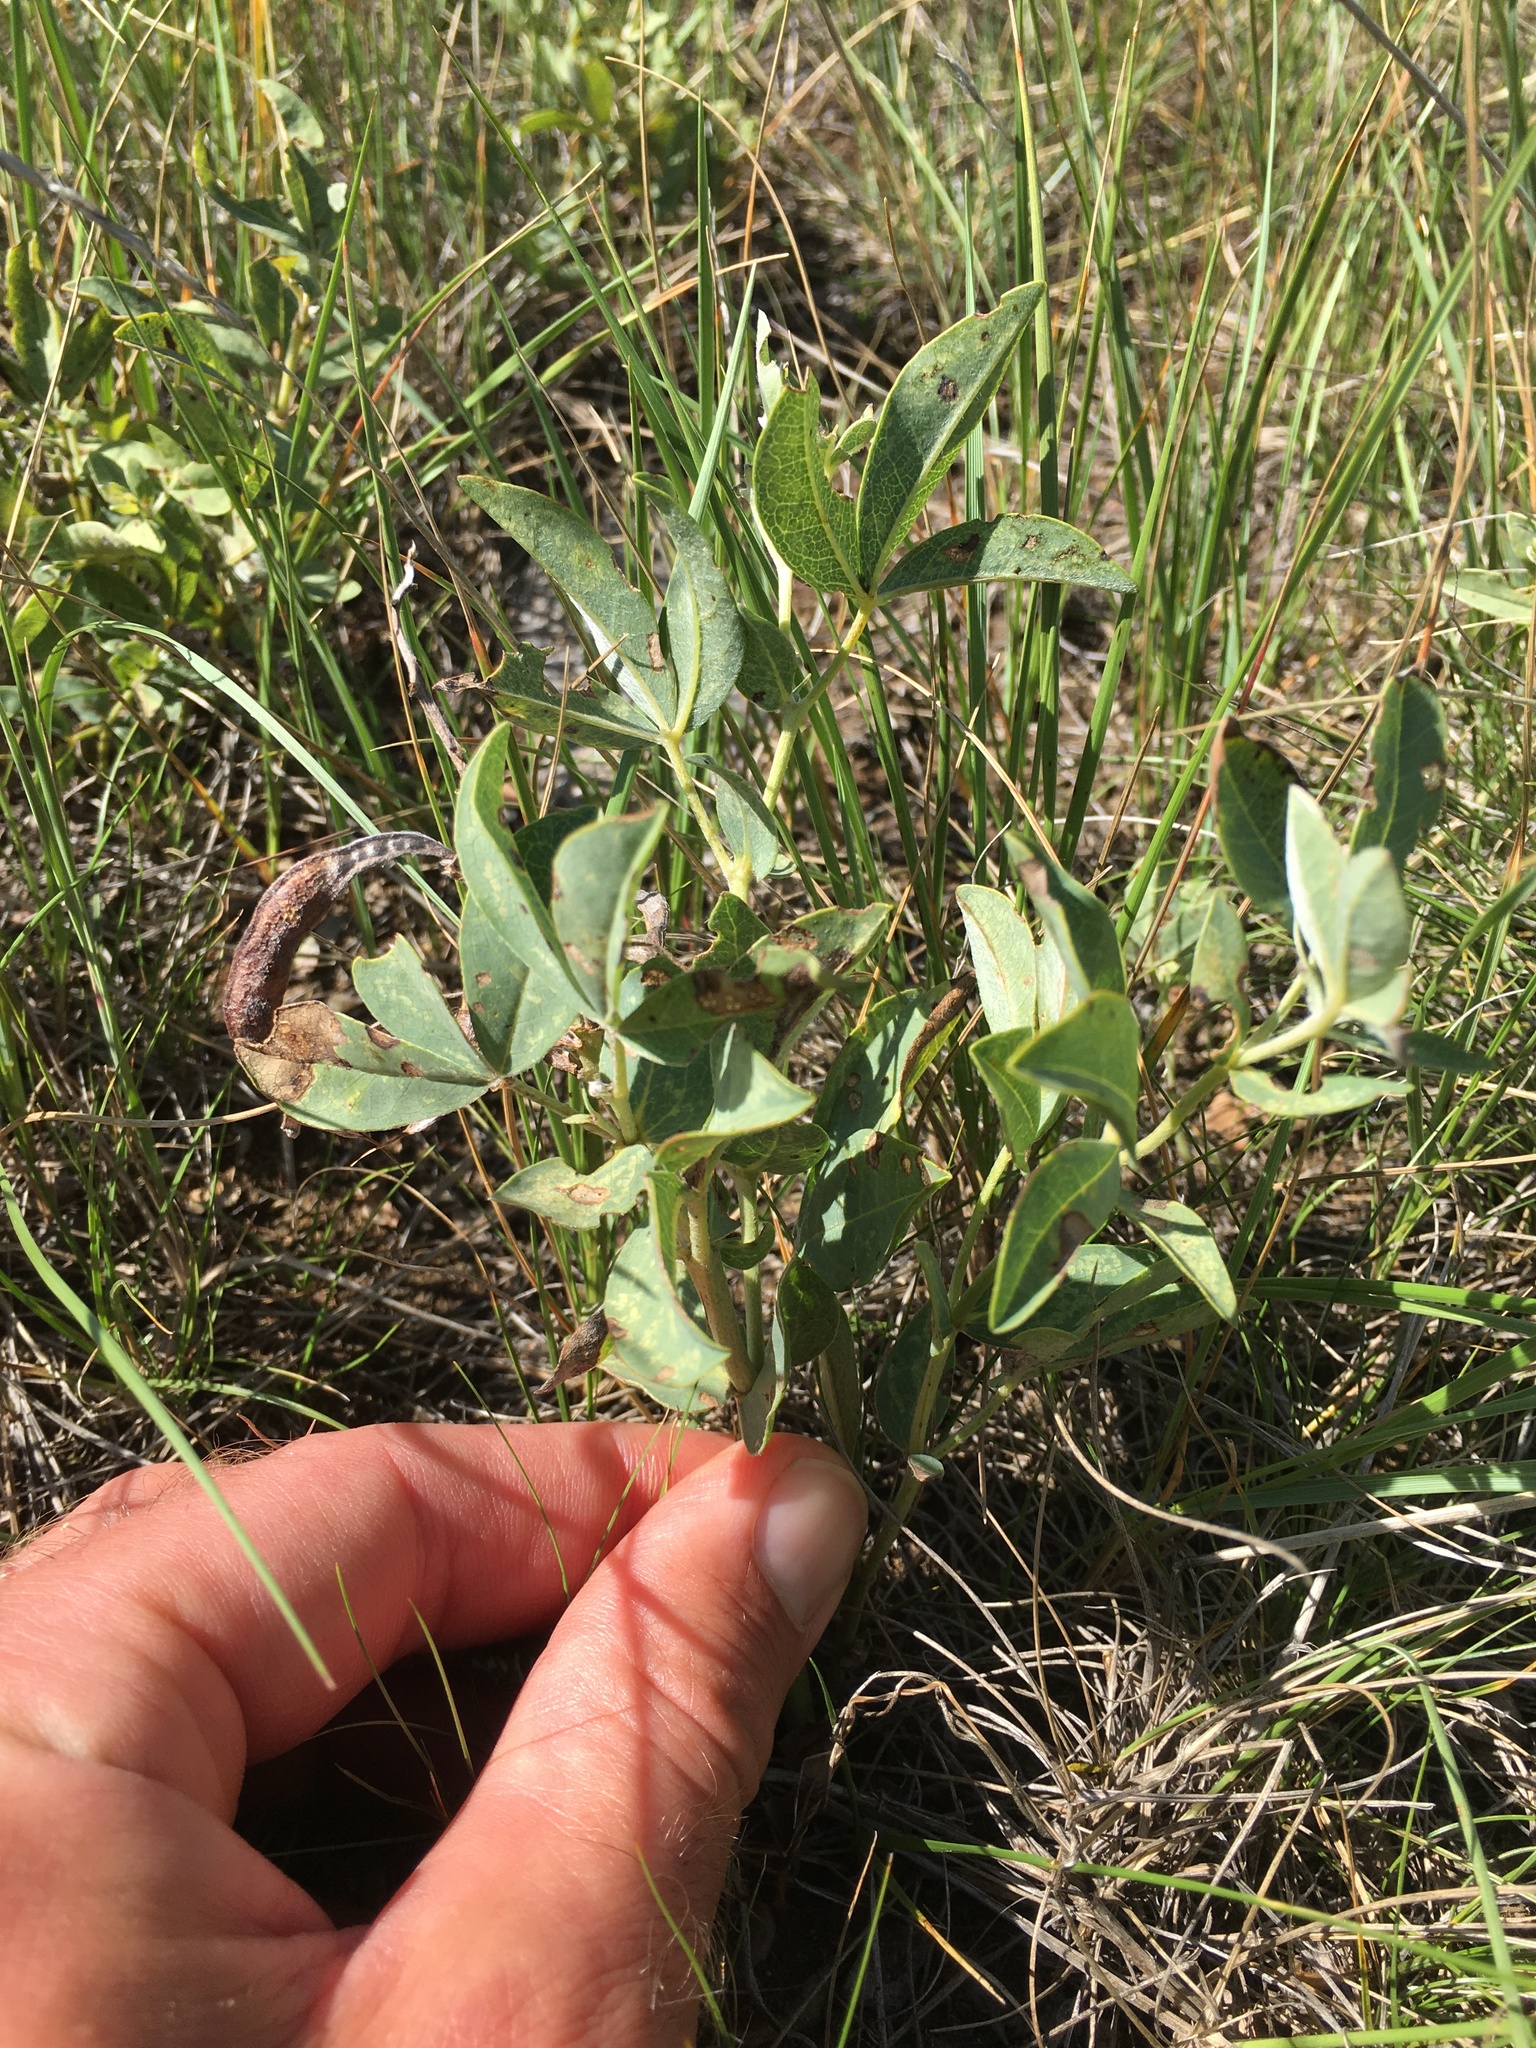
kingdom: Plantae
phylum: Tracheophyta
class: Magnoliopsida
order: Fabales
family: Fabaceae
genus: Thermopsis
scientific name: Thermopsis rhombifolia
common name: Circle-pod-pea
